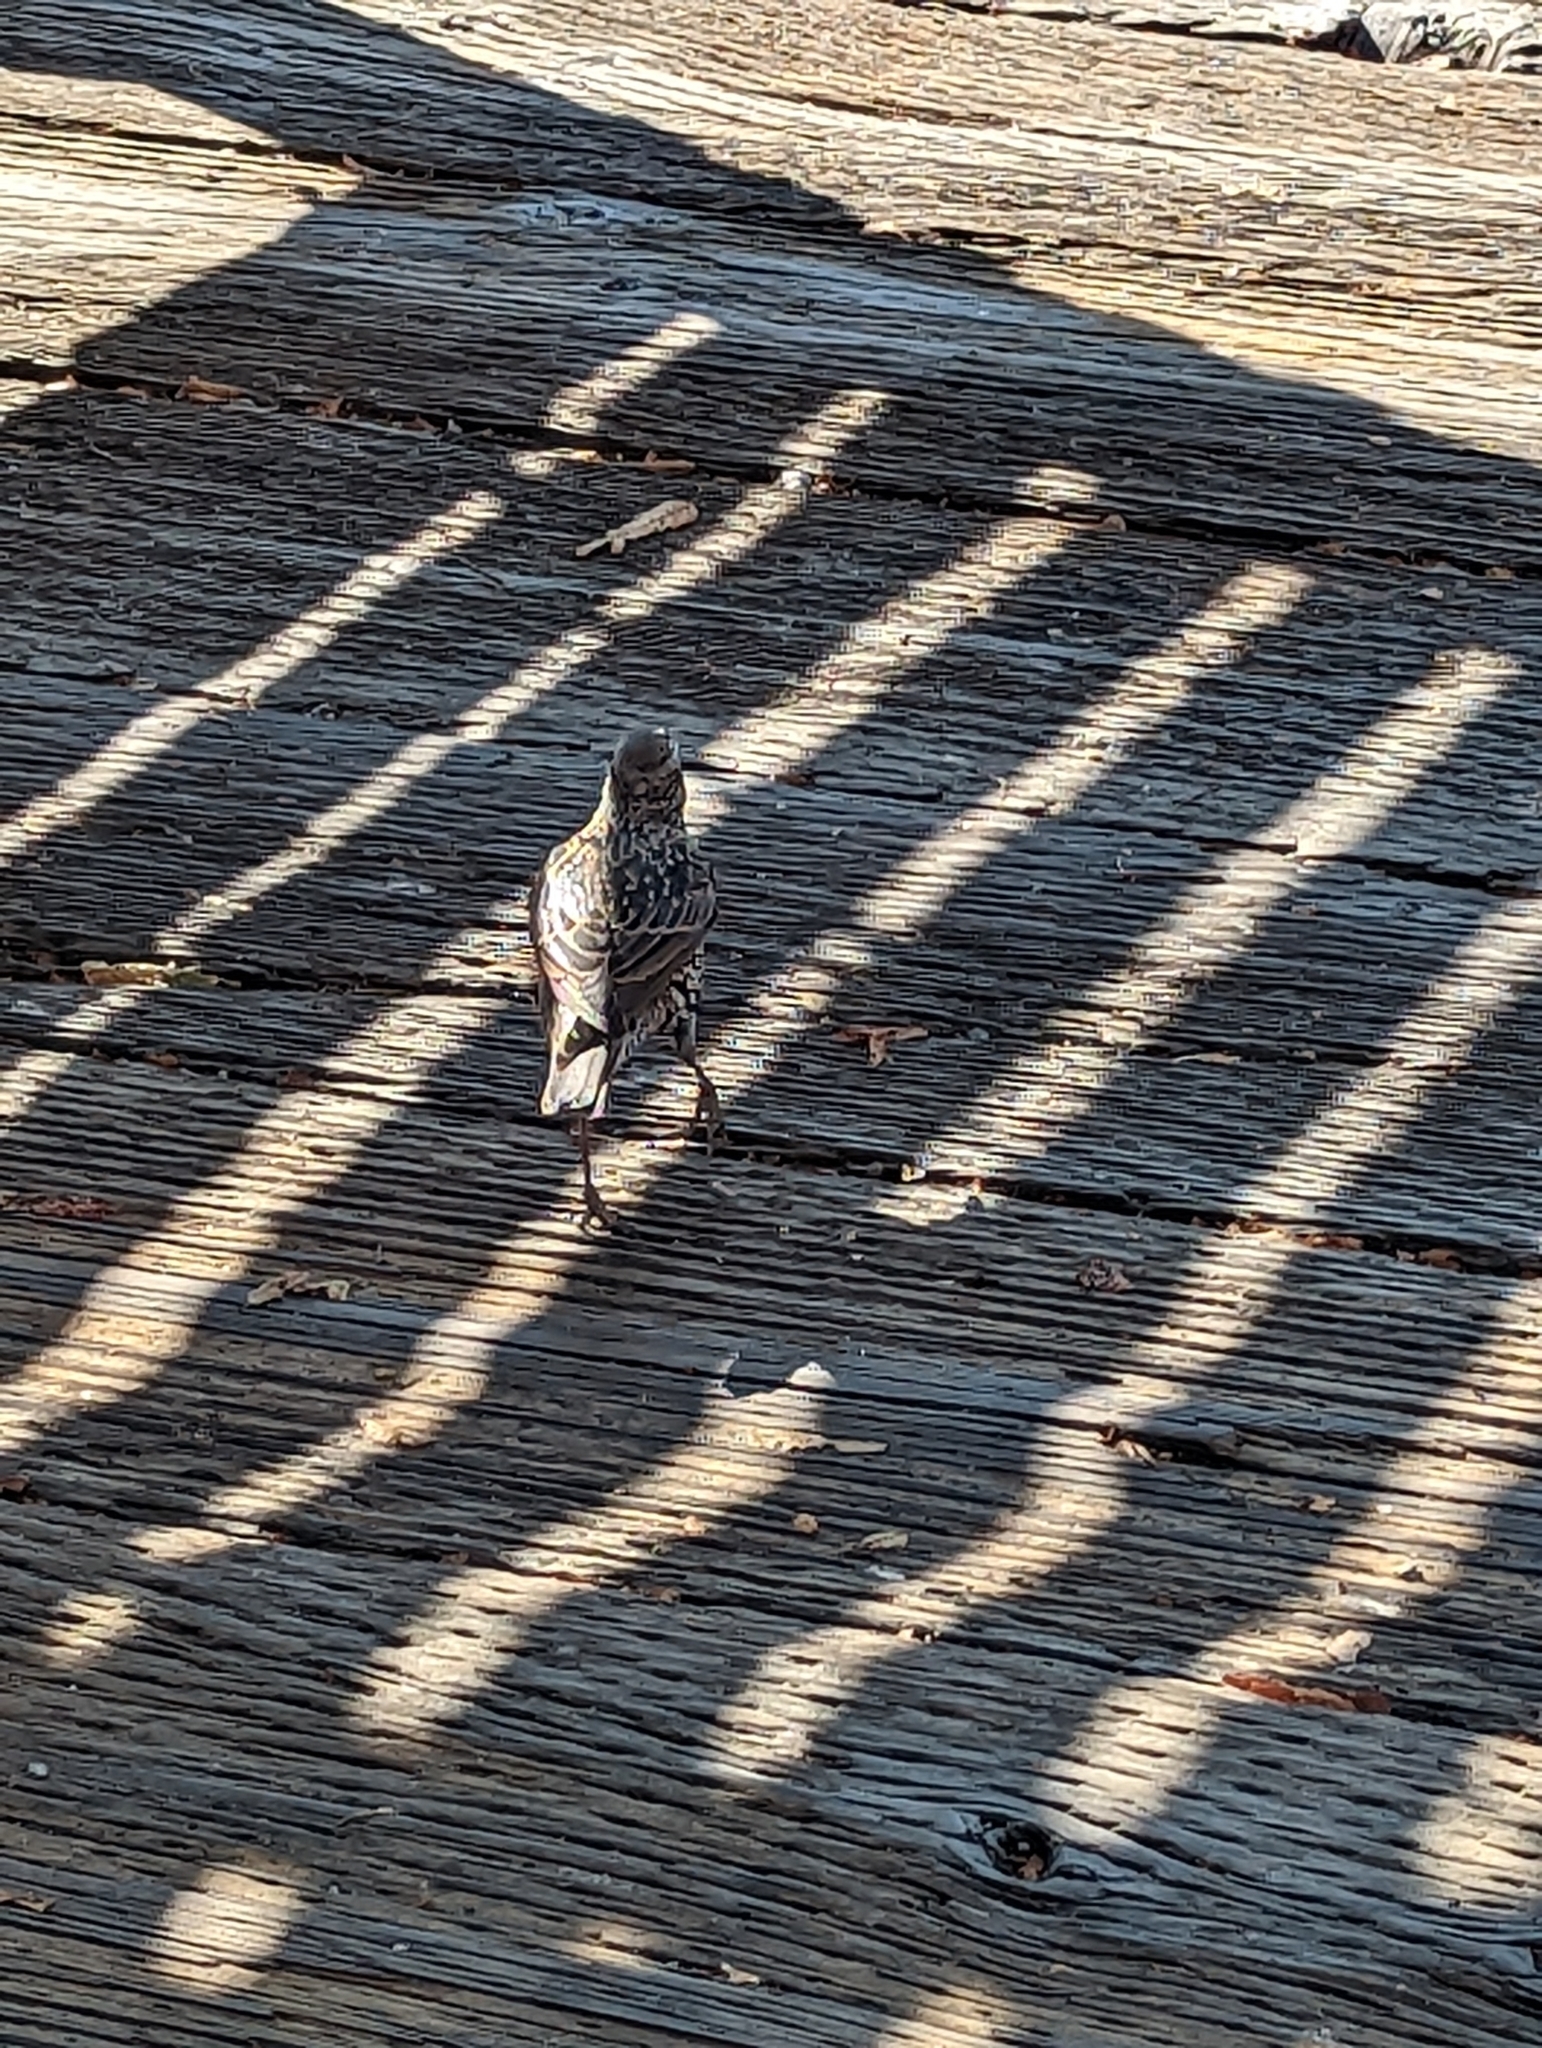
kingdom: Animalia
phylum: Chordata
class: Aves
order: Passeriformes
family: Sturnidae
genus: Sturnus
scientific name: Sturnus vulgaris
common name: Common starling
